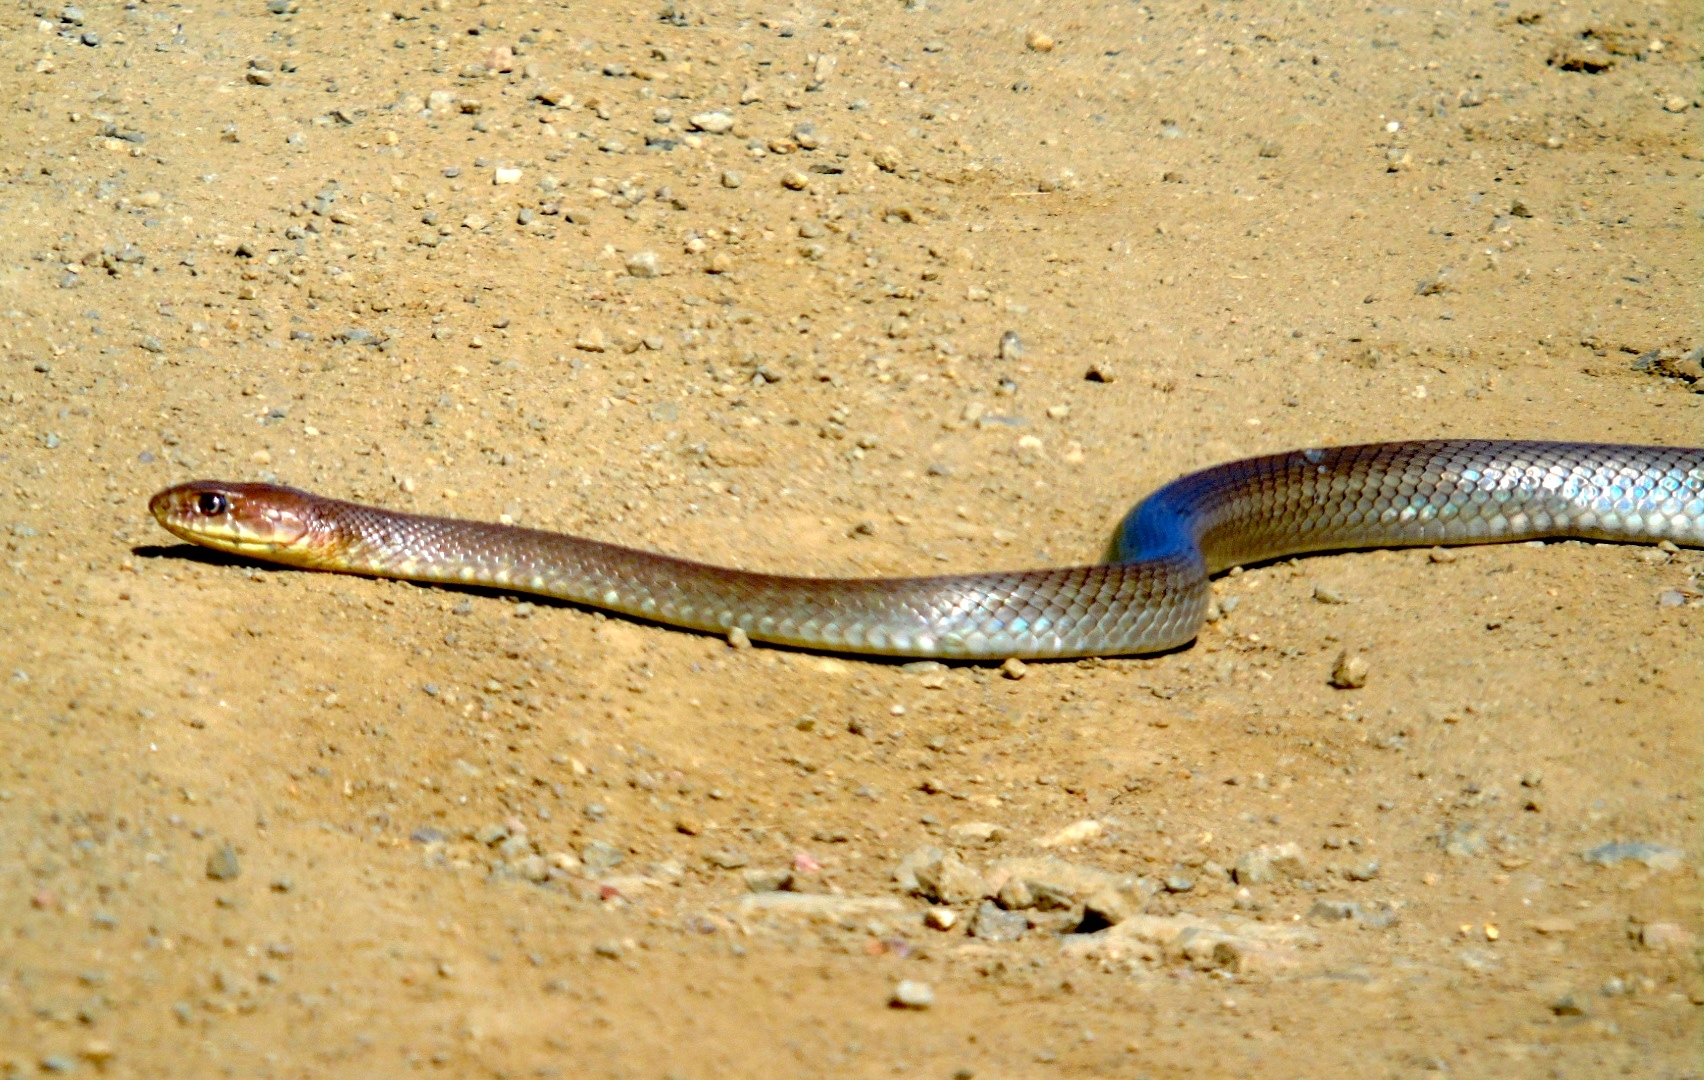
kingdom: Animalia
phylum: Chordata
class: Squamata
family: Colubridae
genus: Masticophis
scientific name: Masticophis mentovarius
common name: Neotropical whip snake
